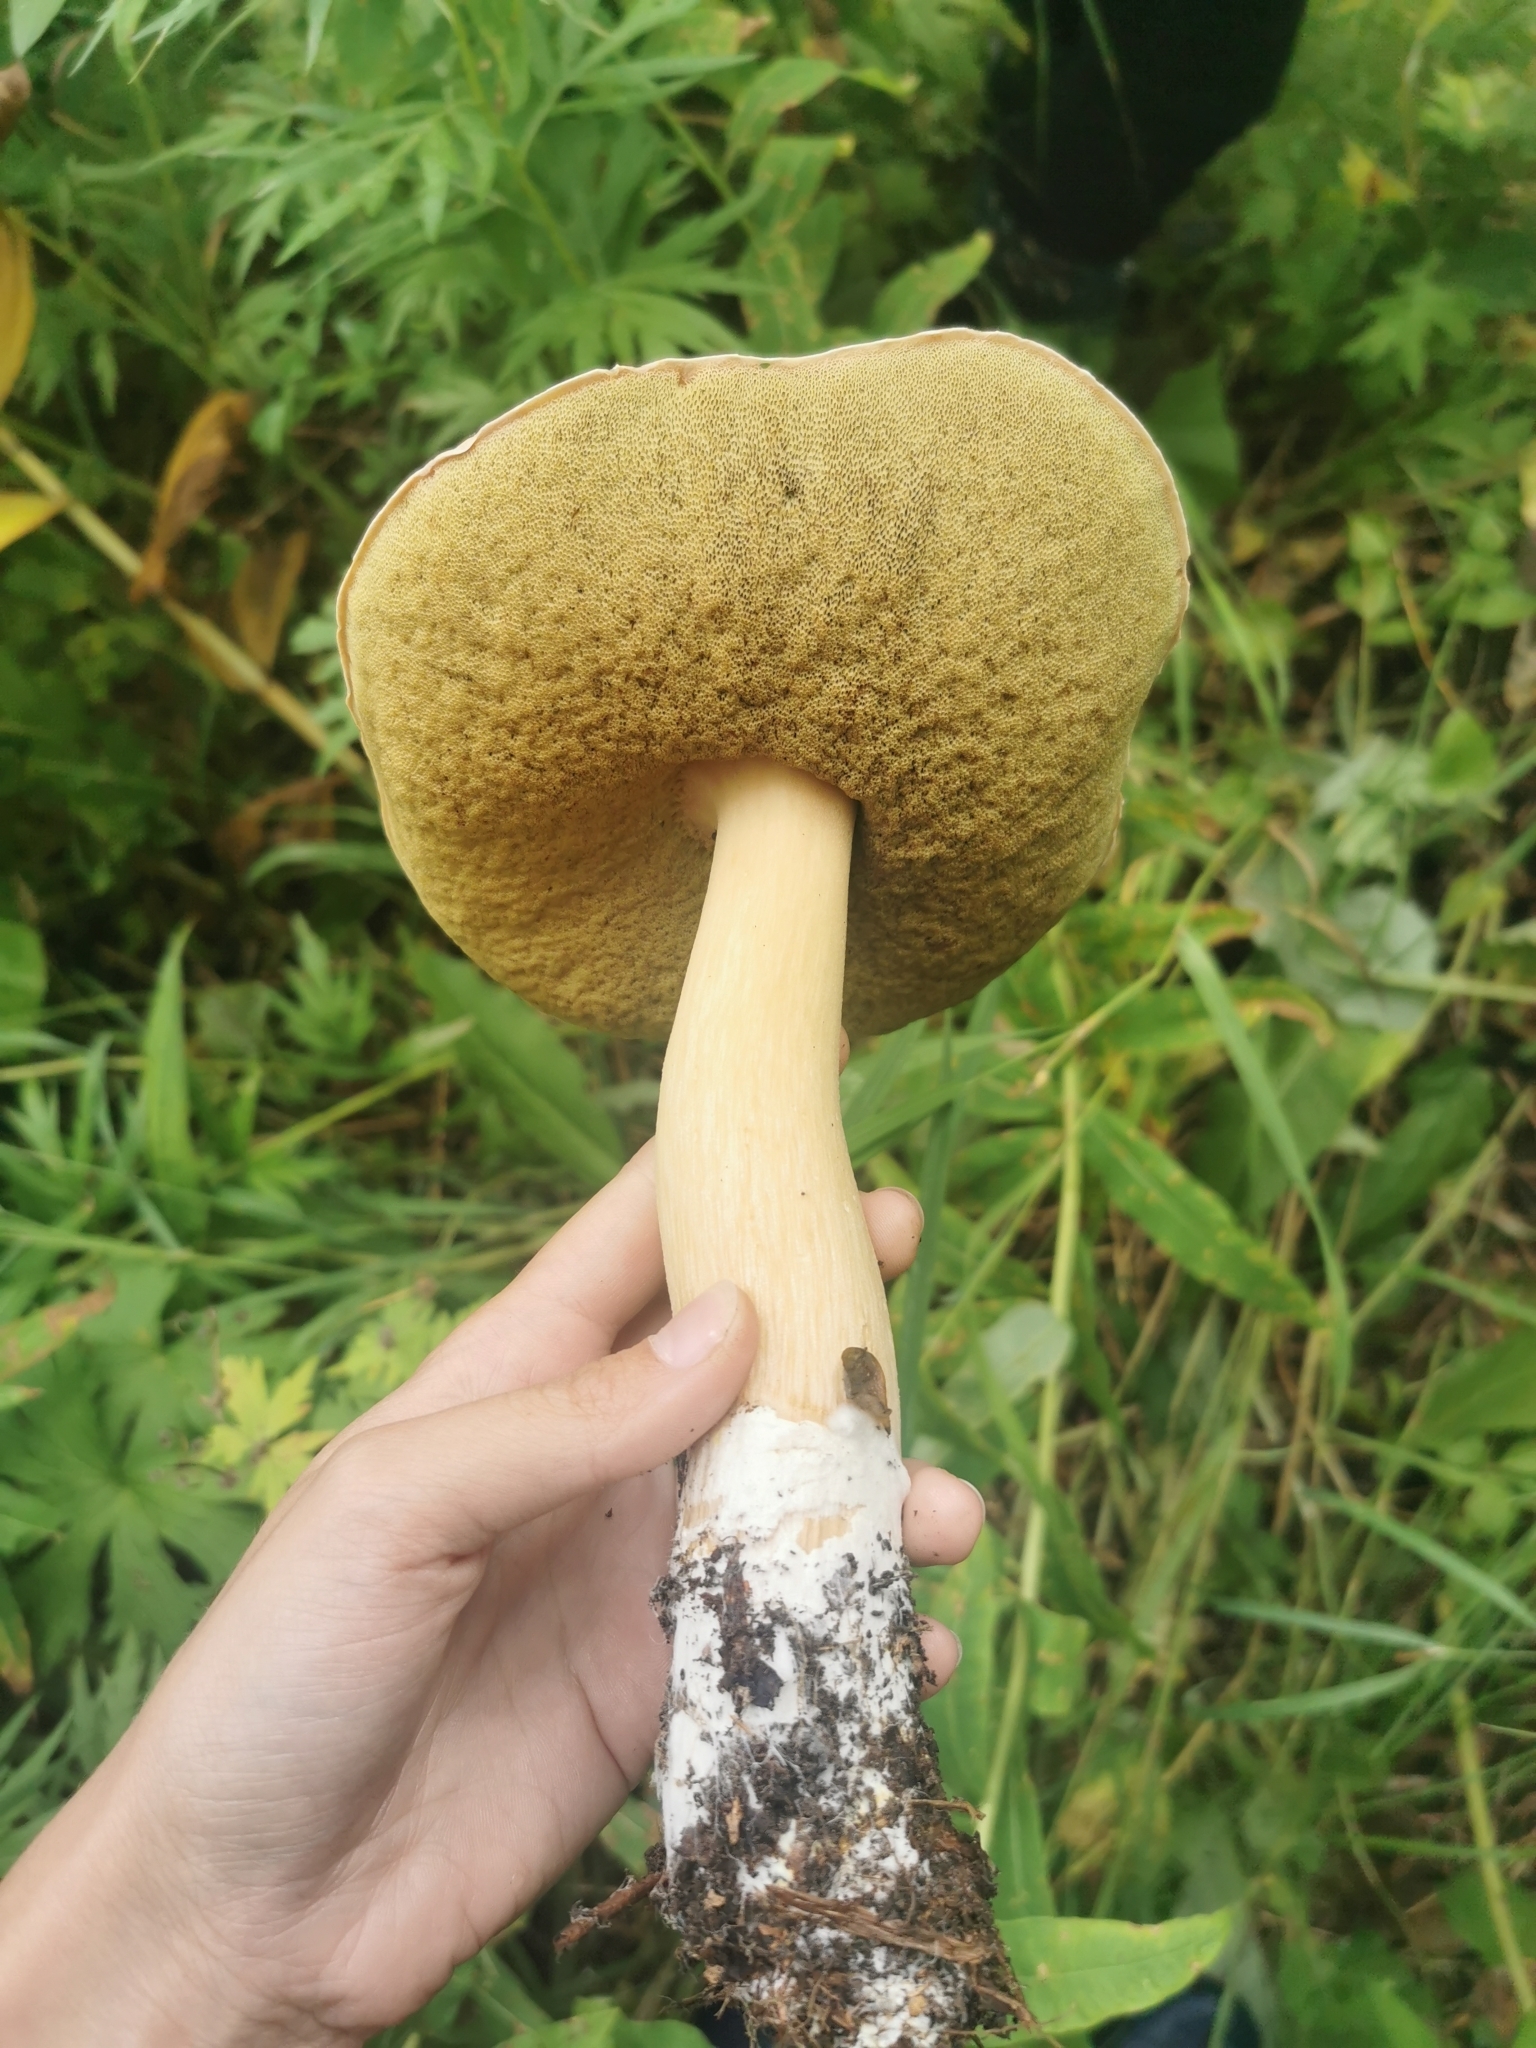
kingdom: Fungi
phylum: Basidiomycota
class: Agaricomycetes
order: Boletales
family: Boletaceae
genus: Boletus
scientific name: Boletus edulis
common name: Cep
